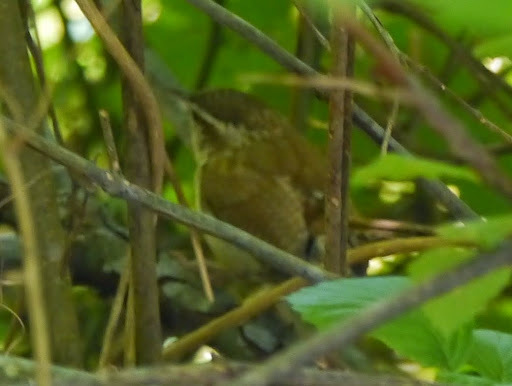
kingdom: Animalia
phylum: Chordata
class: Aves
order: Passeriformes
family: Troglodytidae
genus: Thryothorus
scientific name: Thryothorus ludovicianus
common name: Carolina wren
